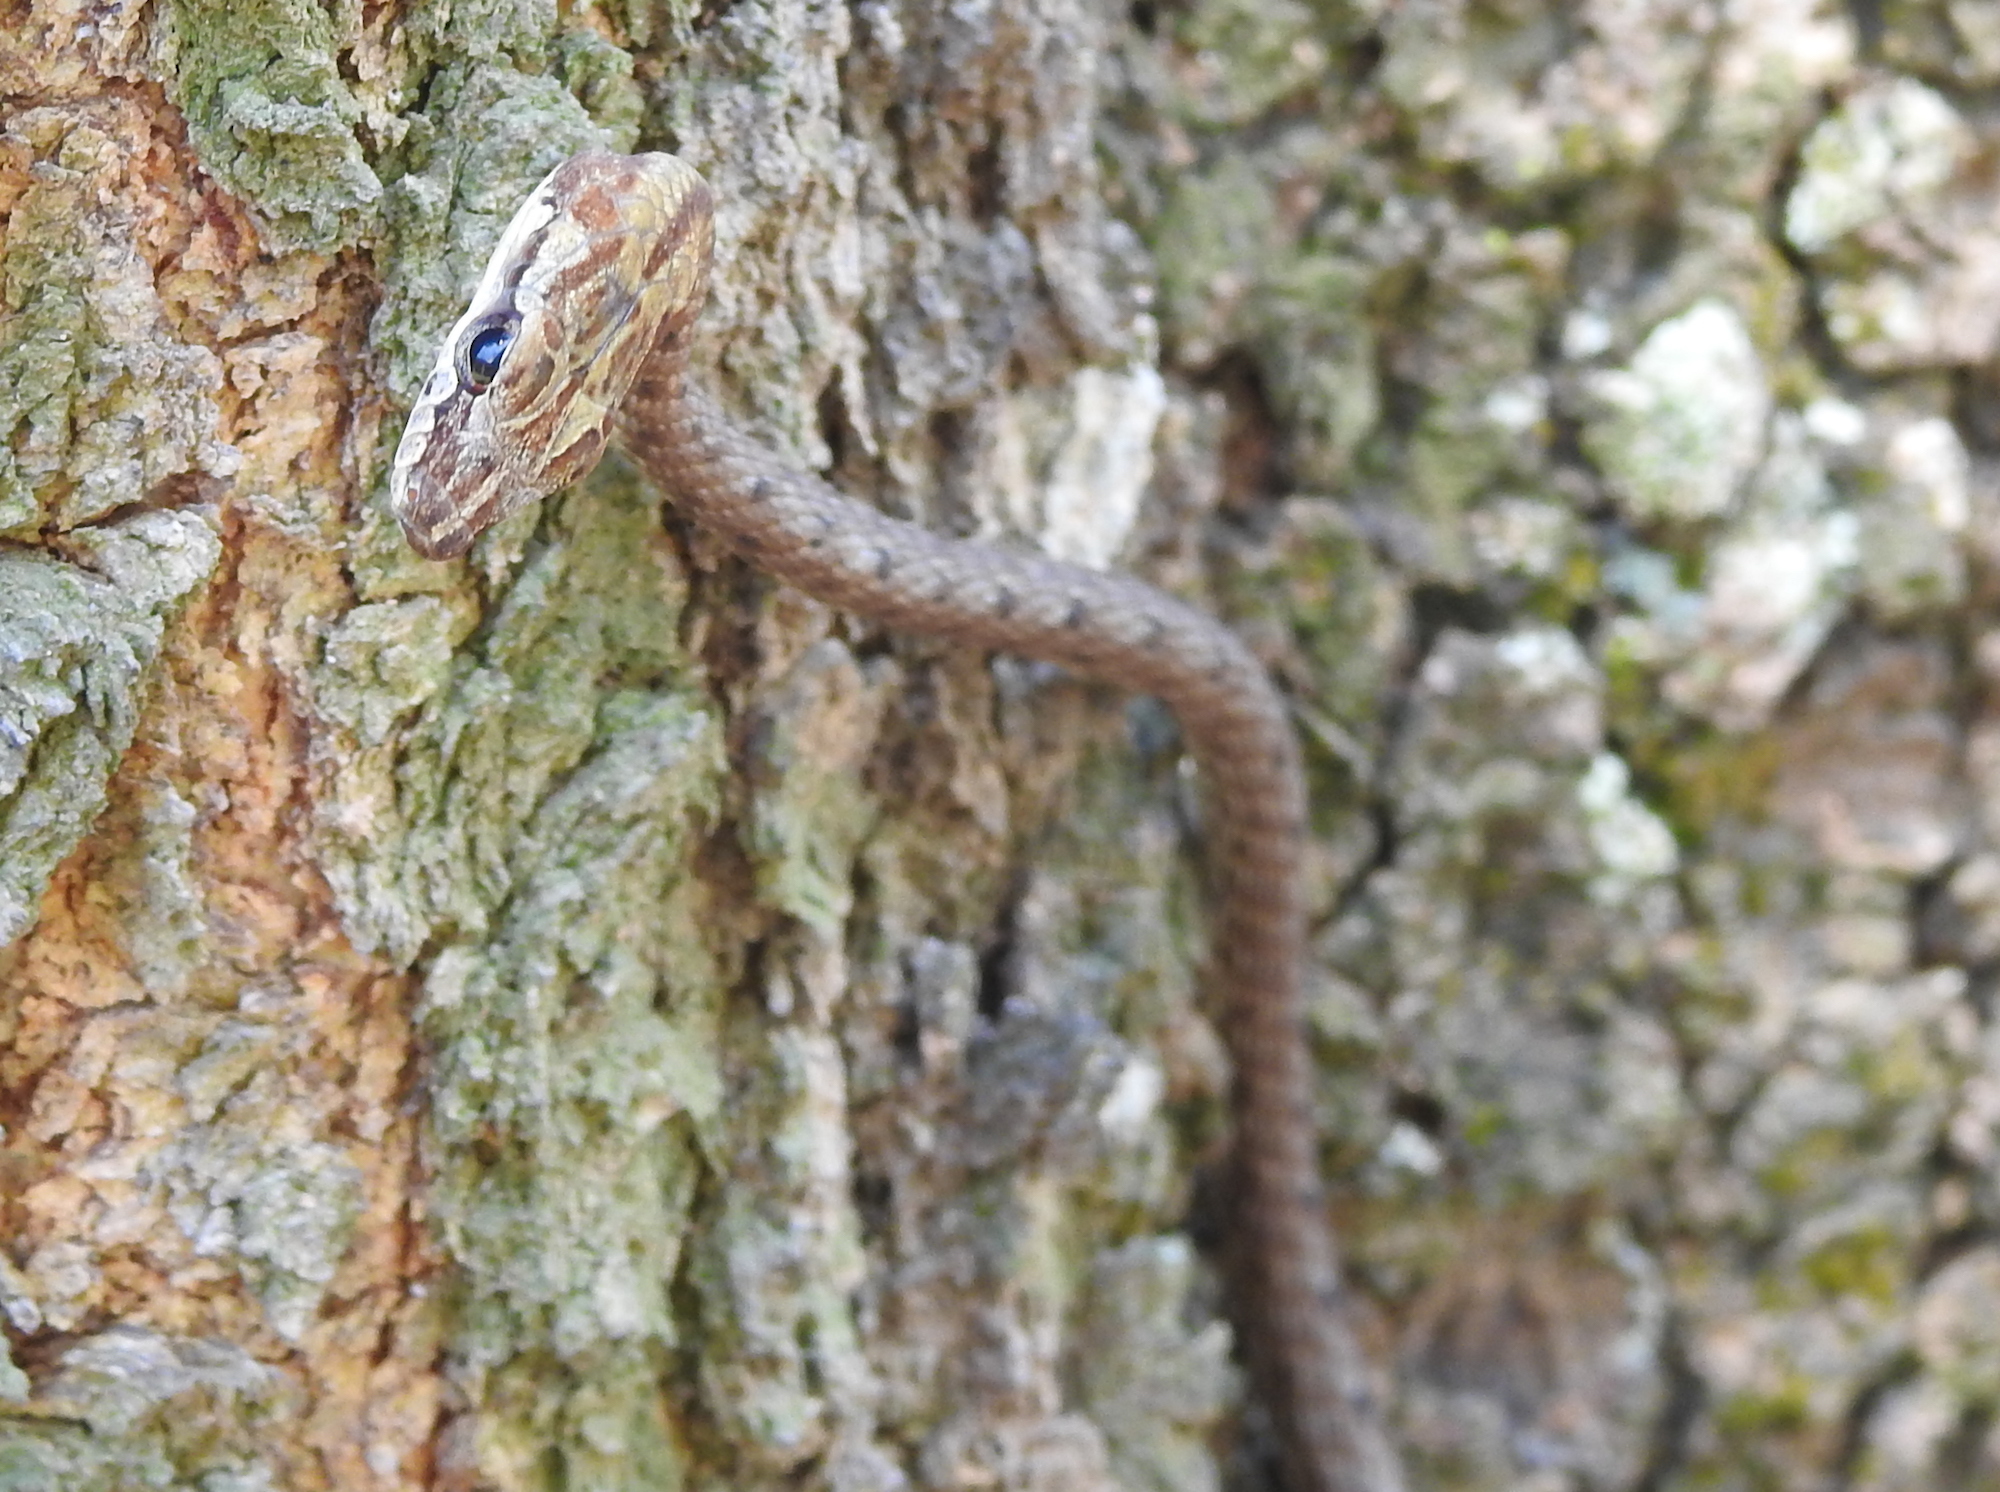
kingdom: Animalia
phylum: Chordata
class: Squamata
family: Colubridae
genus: Dryophiops
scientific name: Dryophiops rubescens
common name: Red whip snake
